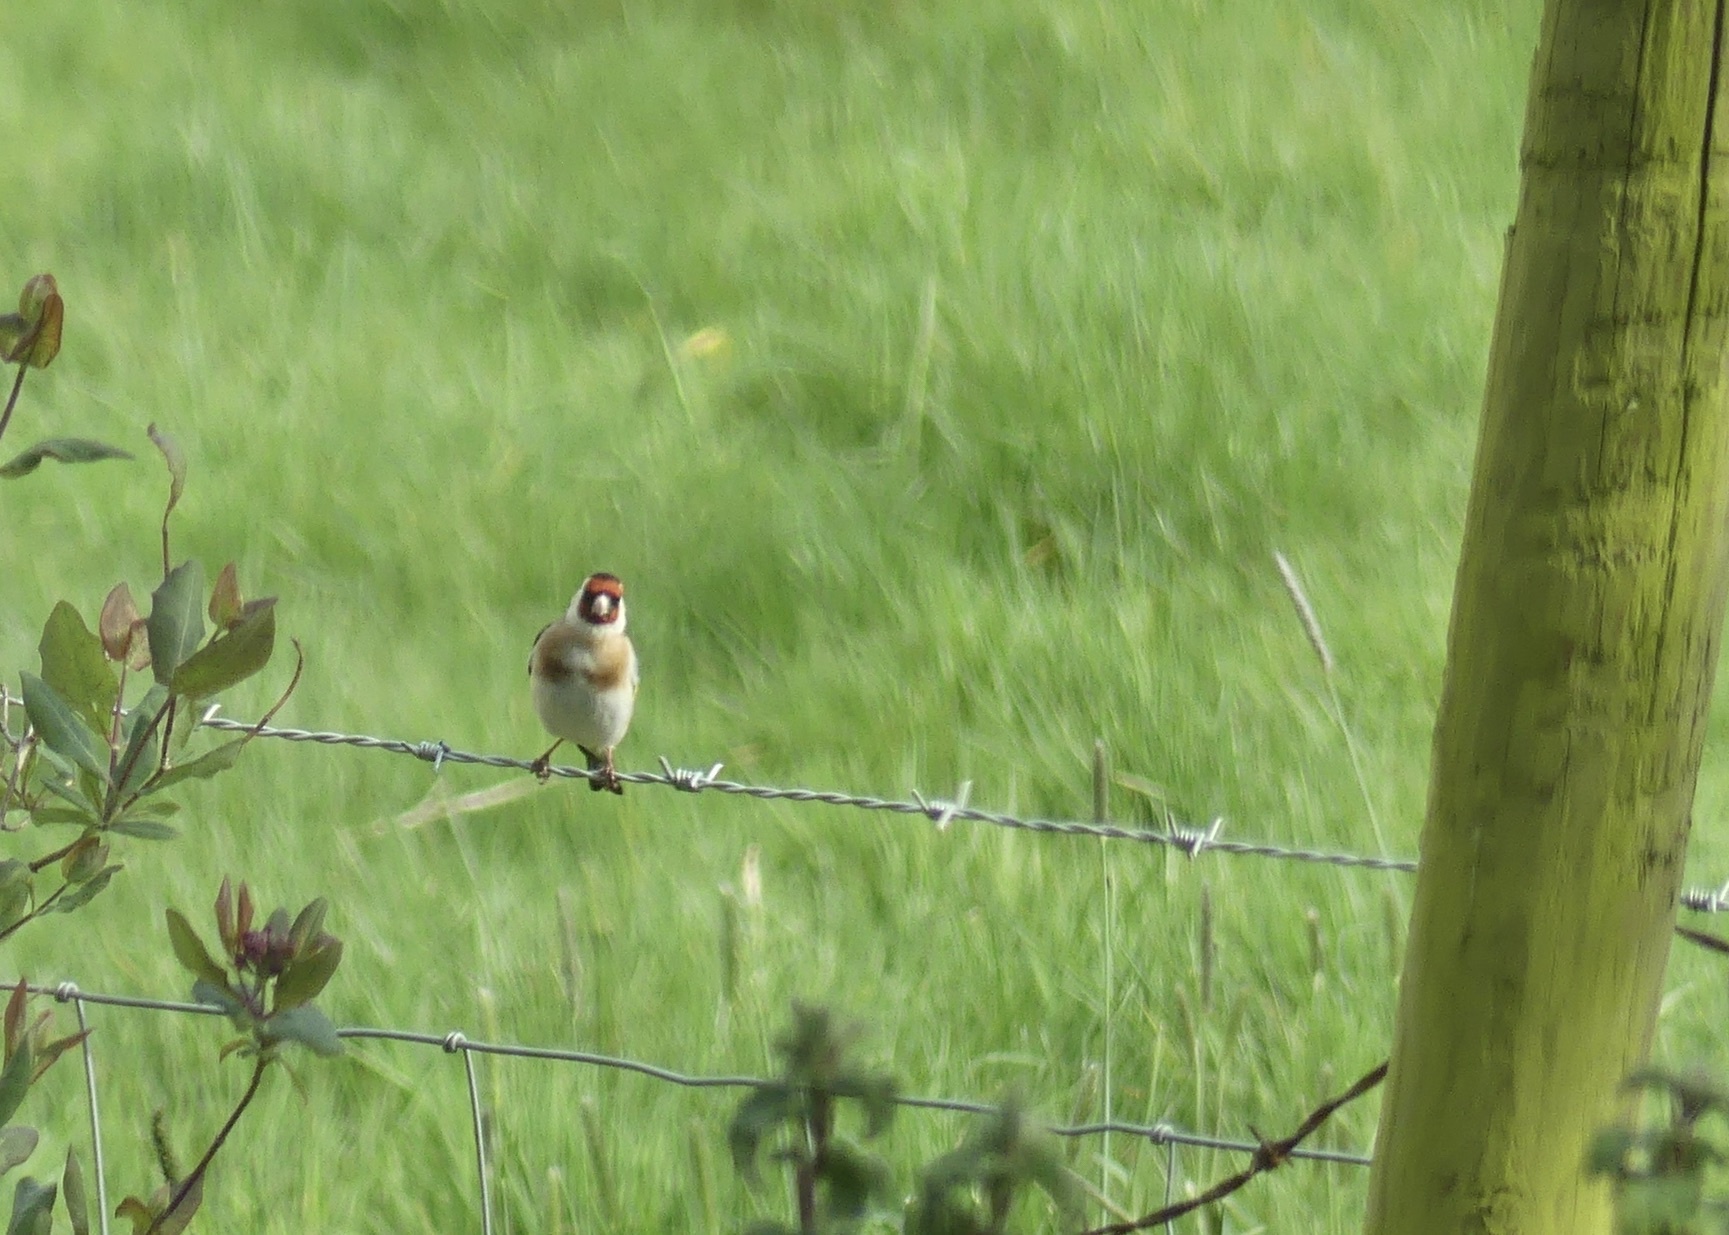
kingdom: Animalia
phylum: Chordata
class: Aves
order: Passeriformes
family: Fringillidae
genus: Carduelis
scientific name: Carduelis carduelis
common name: European goldfinch
